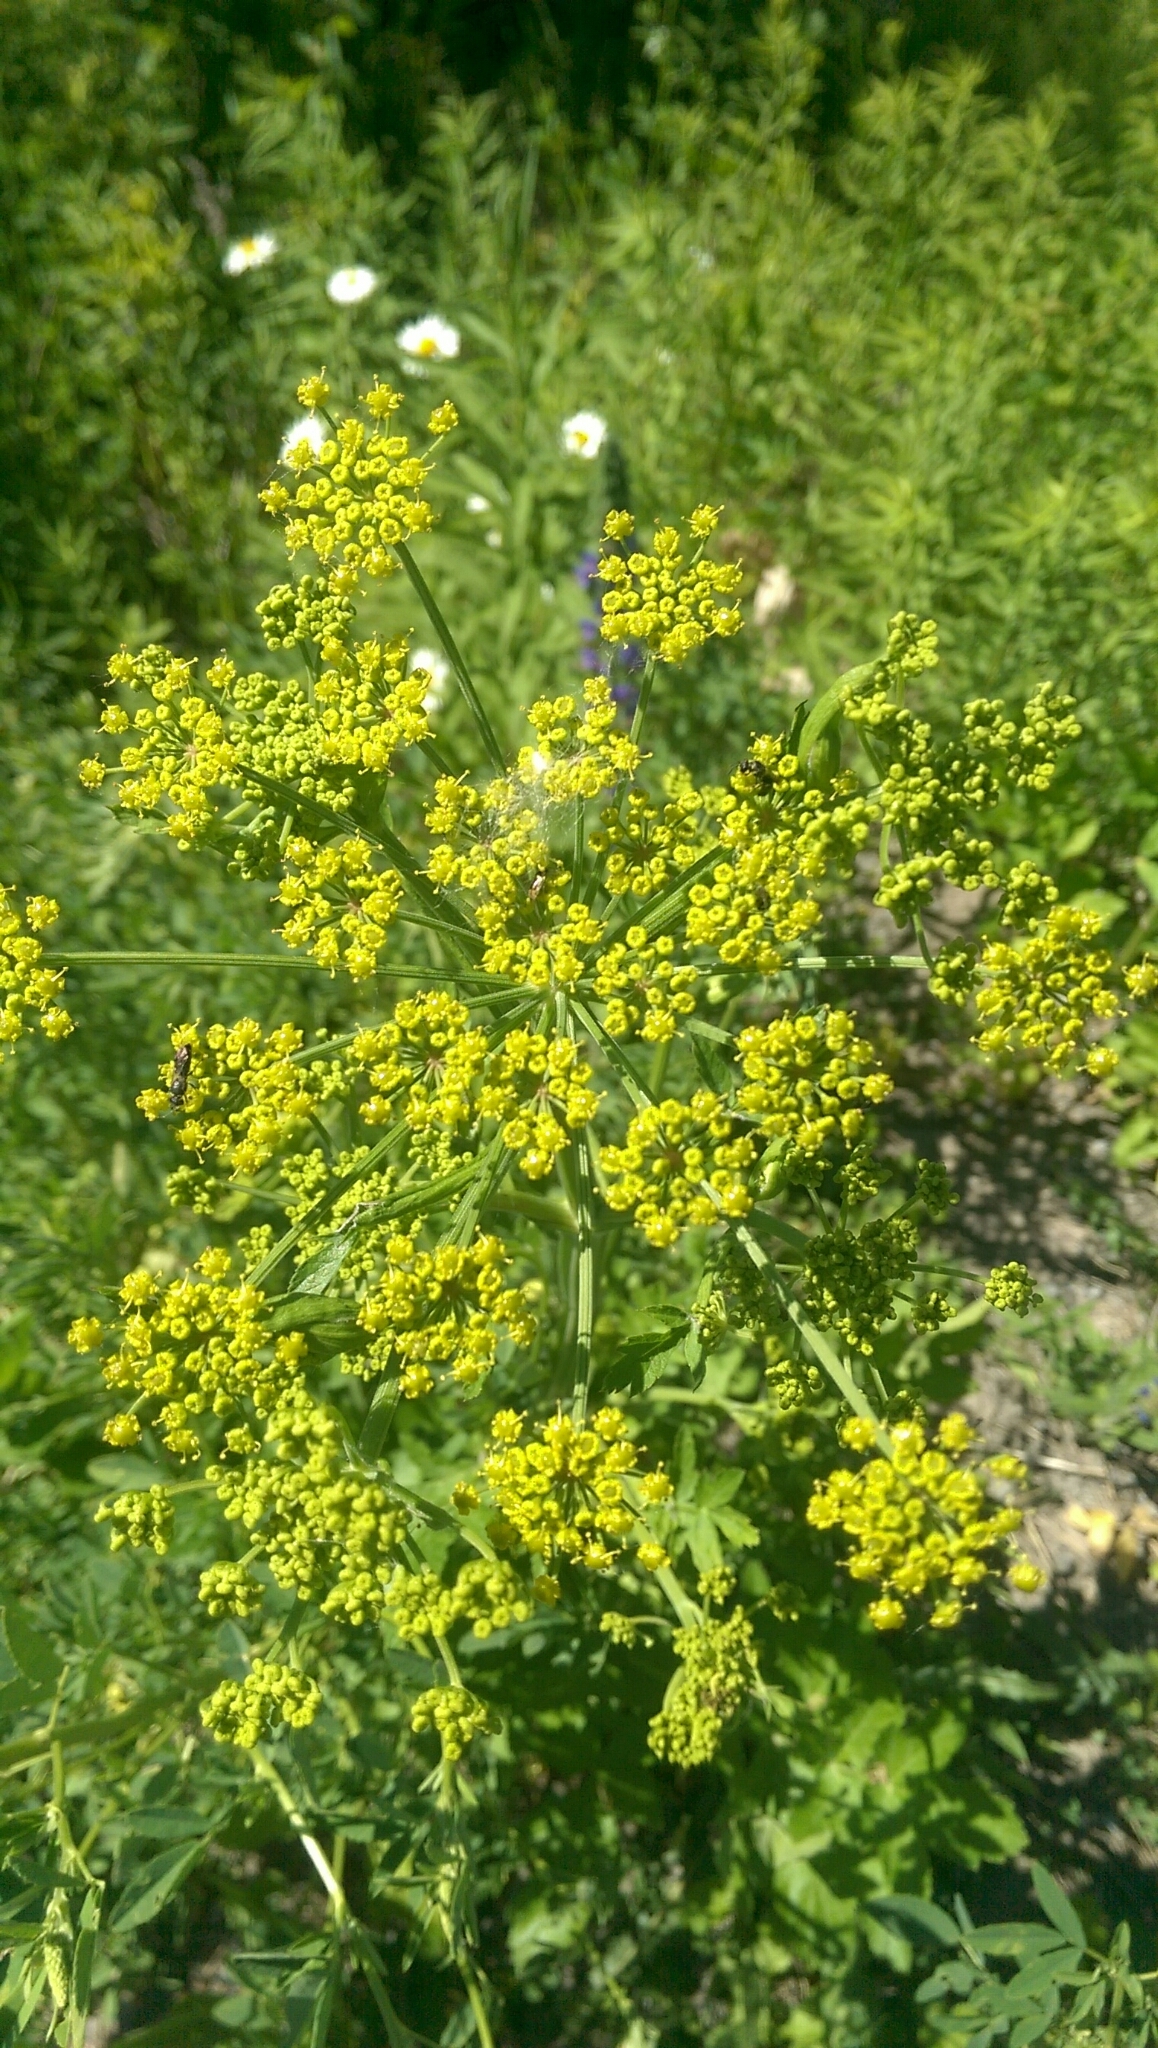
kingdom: Plantae
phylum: Tracheophyta
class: Magnoliopsida
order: Apiales
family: Apiaceae
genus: Pastinaca
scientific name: Pastinaca sativa
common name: Wild parsnip
